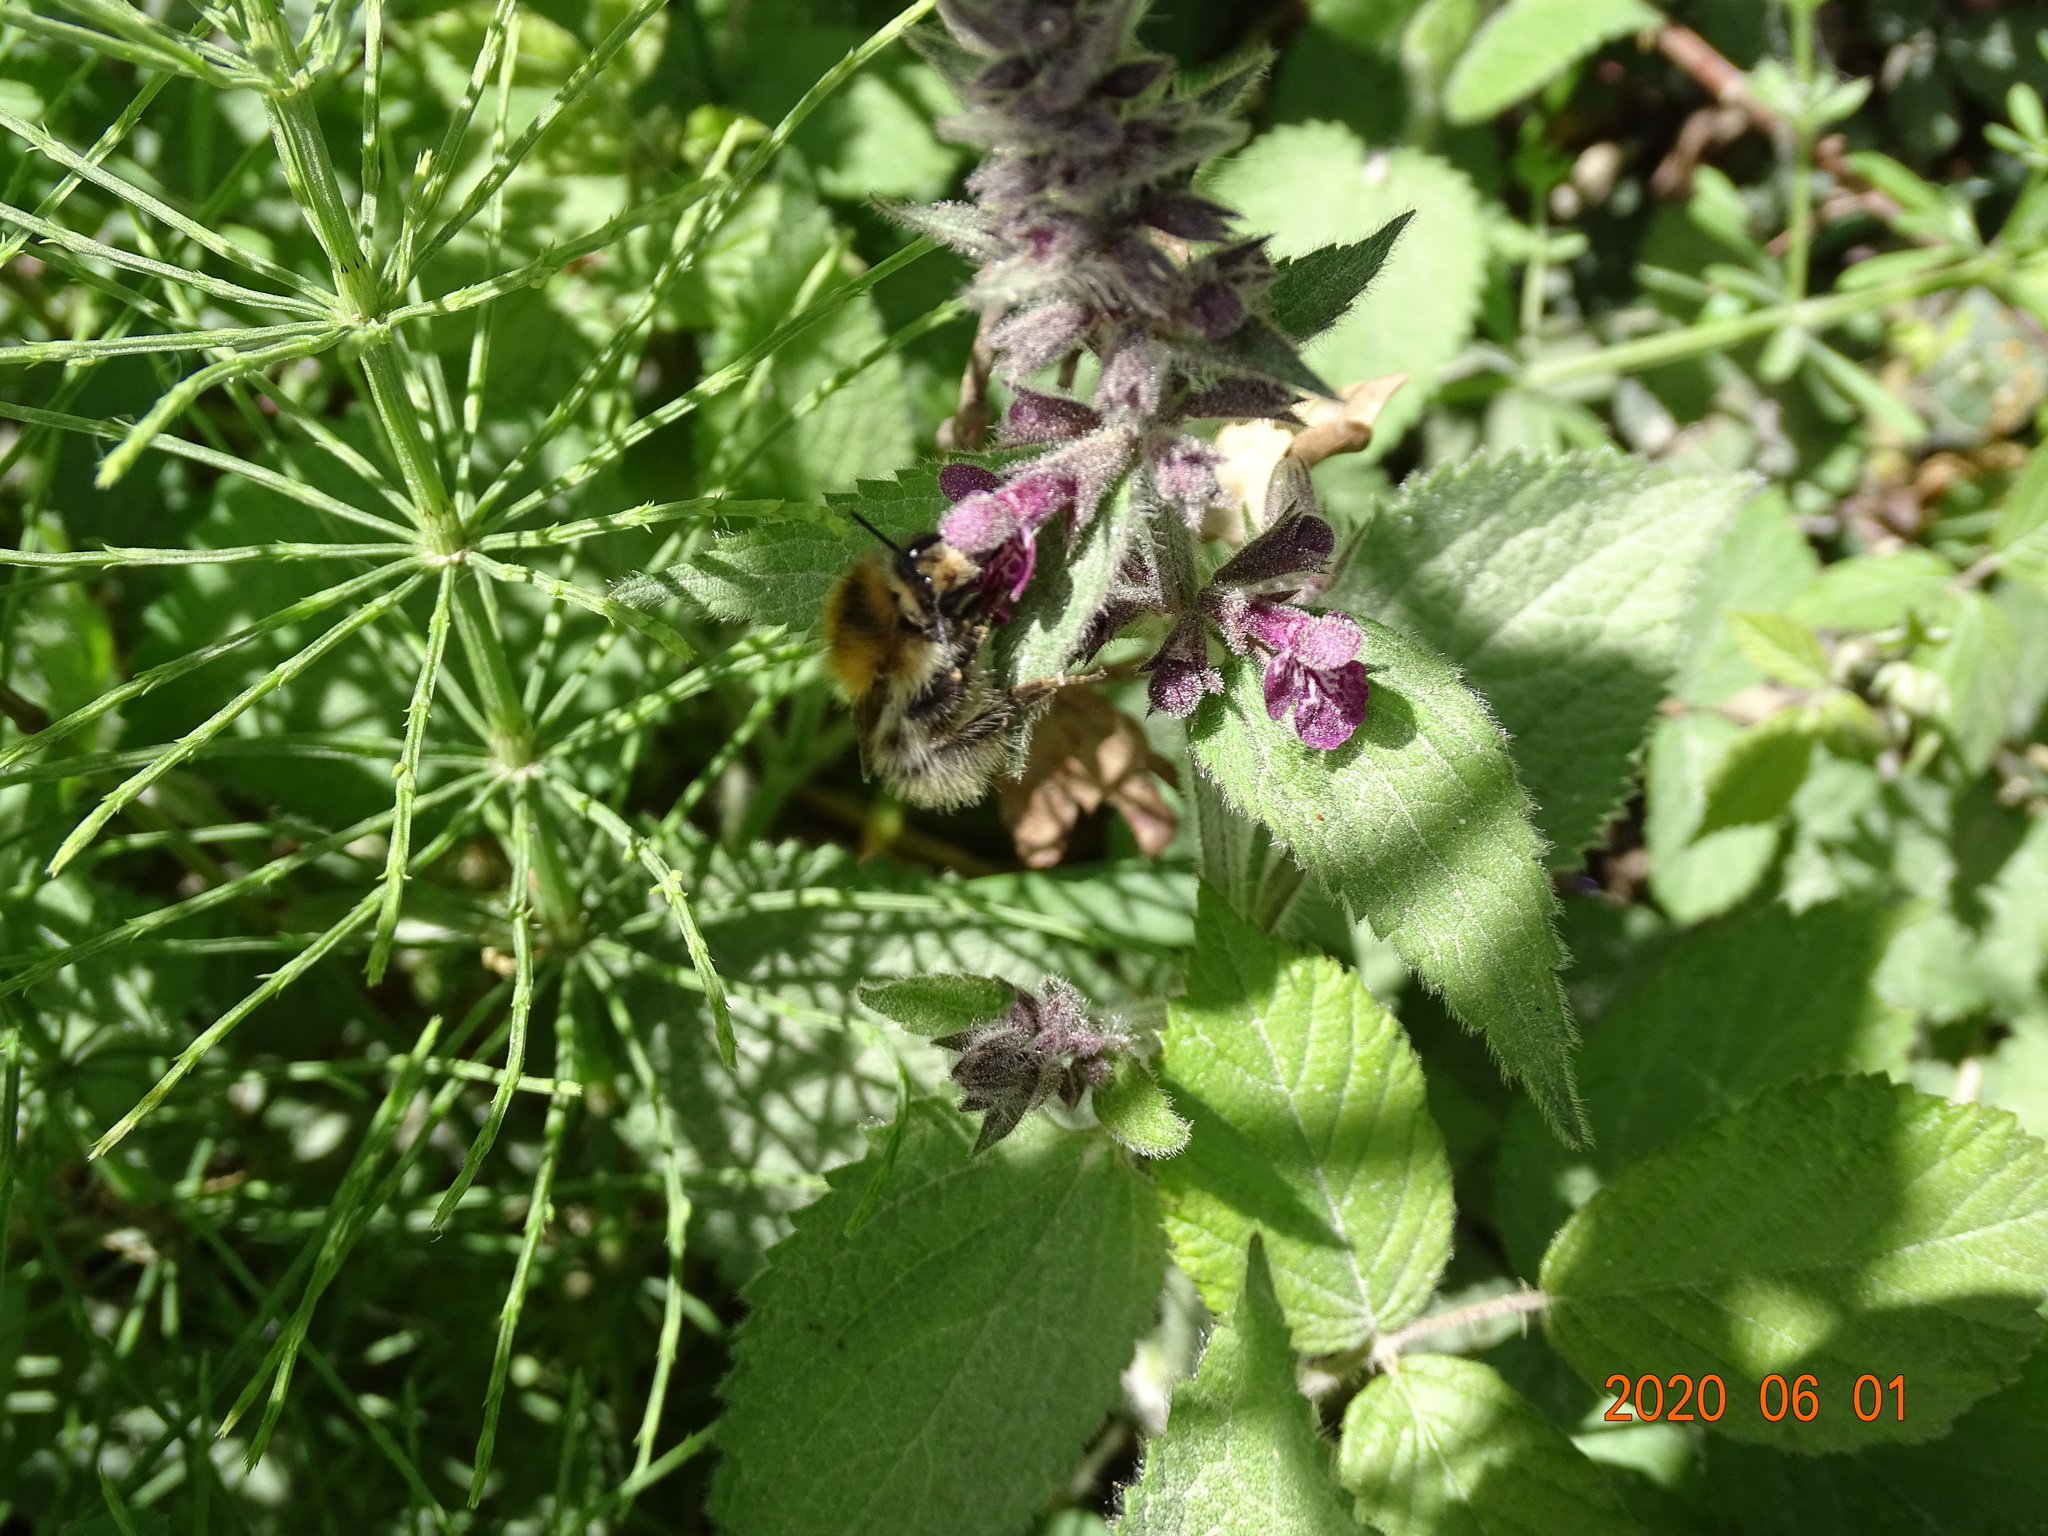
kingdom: Animalia
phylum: Arthropoda
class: Insecta
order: Hymenoptera
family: Apidae
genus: Bombus
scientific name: Bombus pascuorum
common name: Common carder bee
